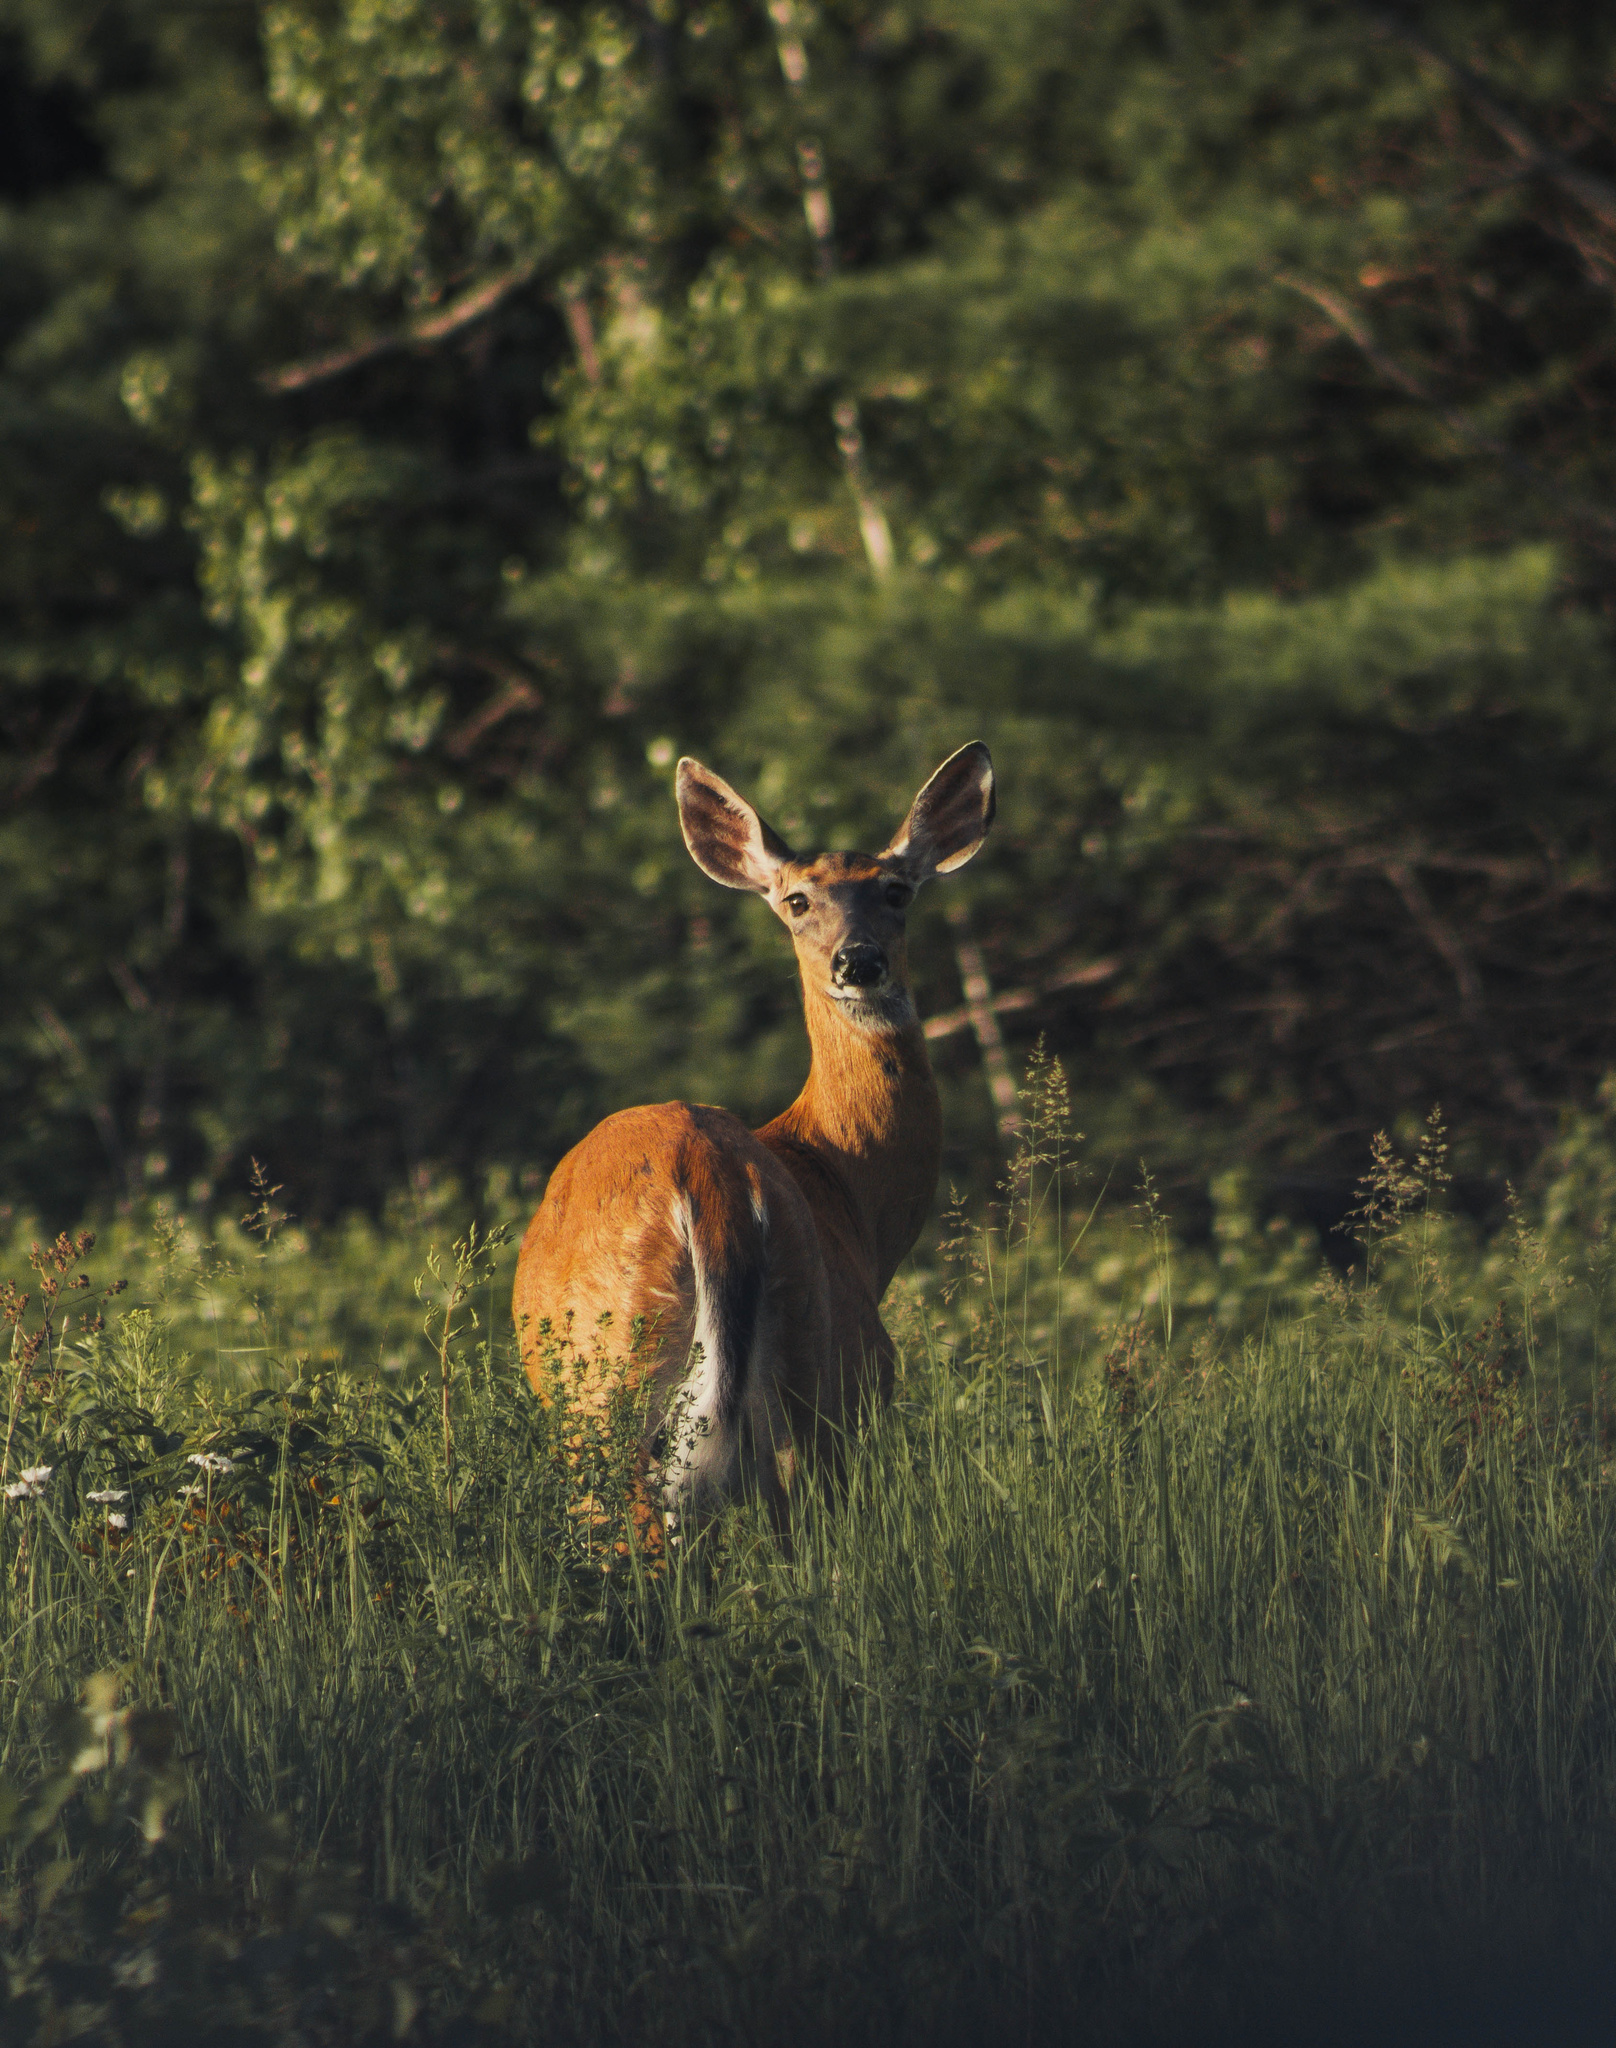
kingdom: Animalia
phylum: Chordata
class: Mammalia
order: Artiodactyla
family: Cervidae
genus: Odocoileus
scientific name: Odocoileus virginianus
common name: White-tailed deer
